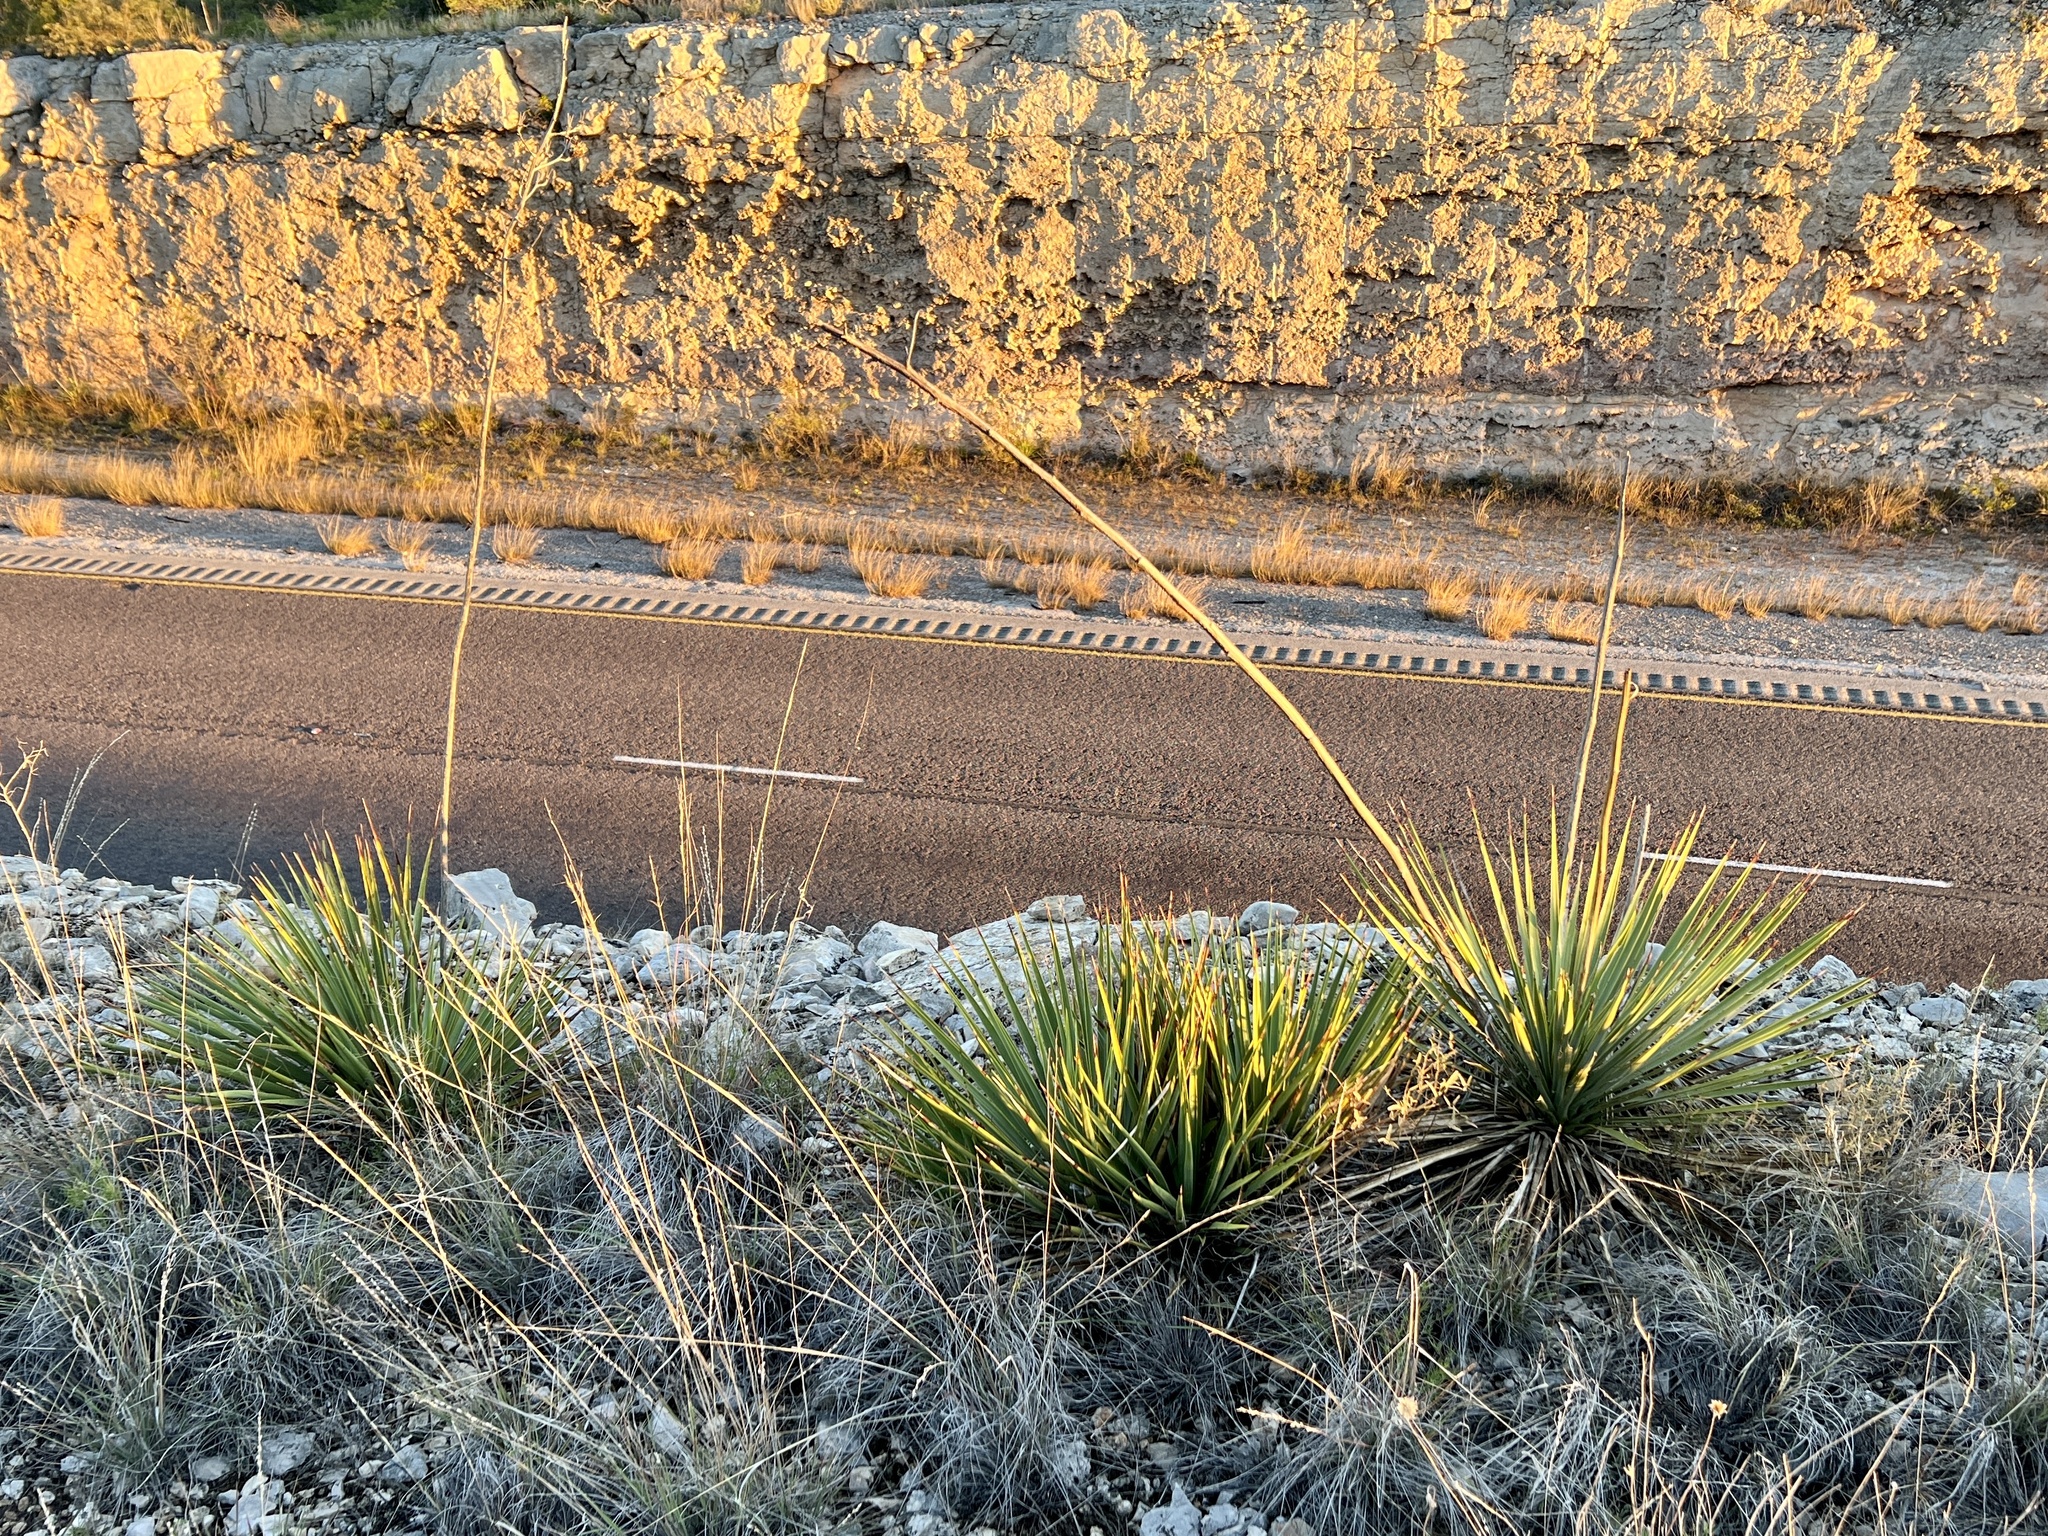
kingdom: Plantae
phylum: Tracheophyta
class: Liliopsida
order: Asparagales
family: Asparagaceae
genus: Yucca
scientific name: Yucca reverchonii
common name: San angelo yucca
